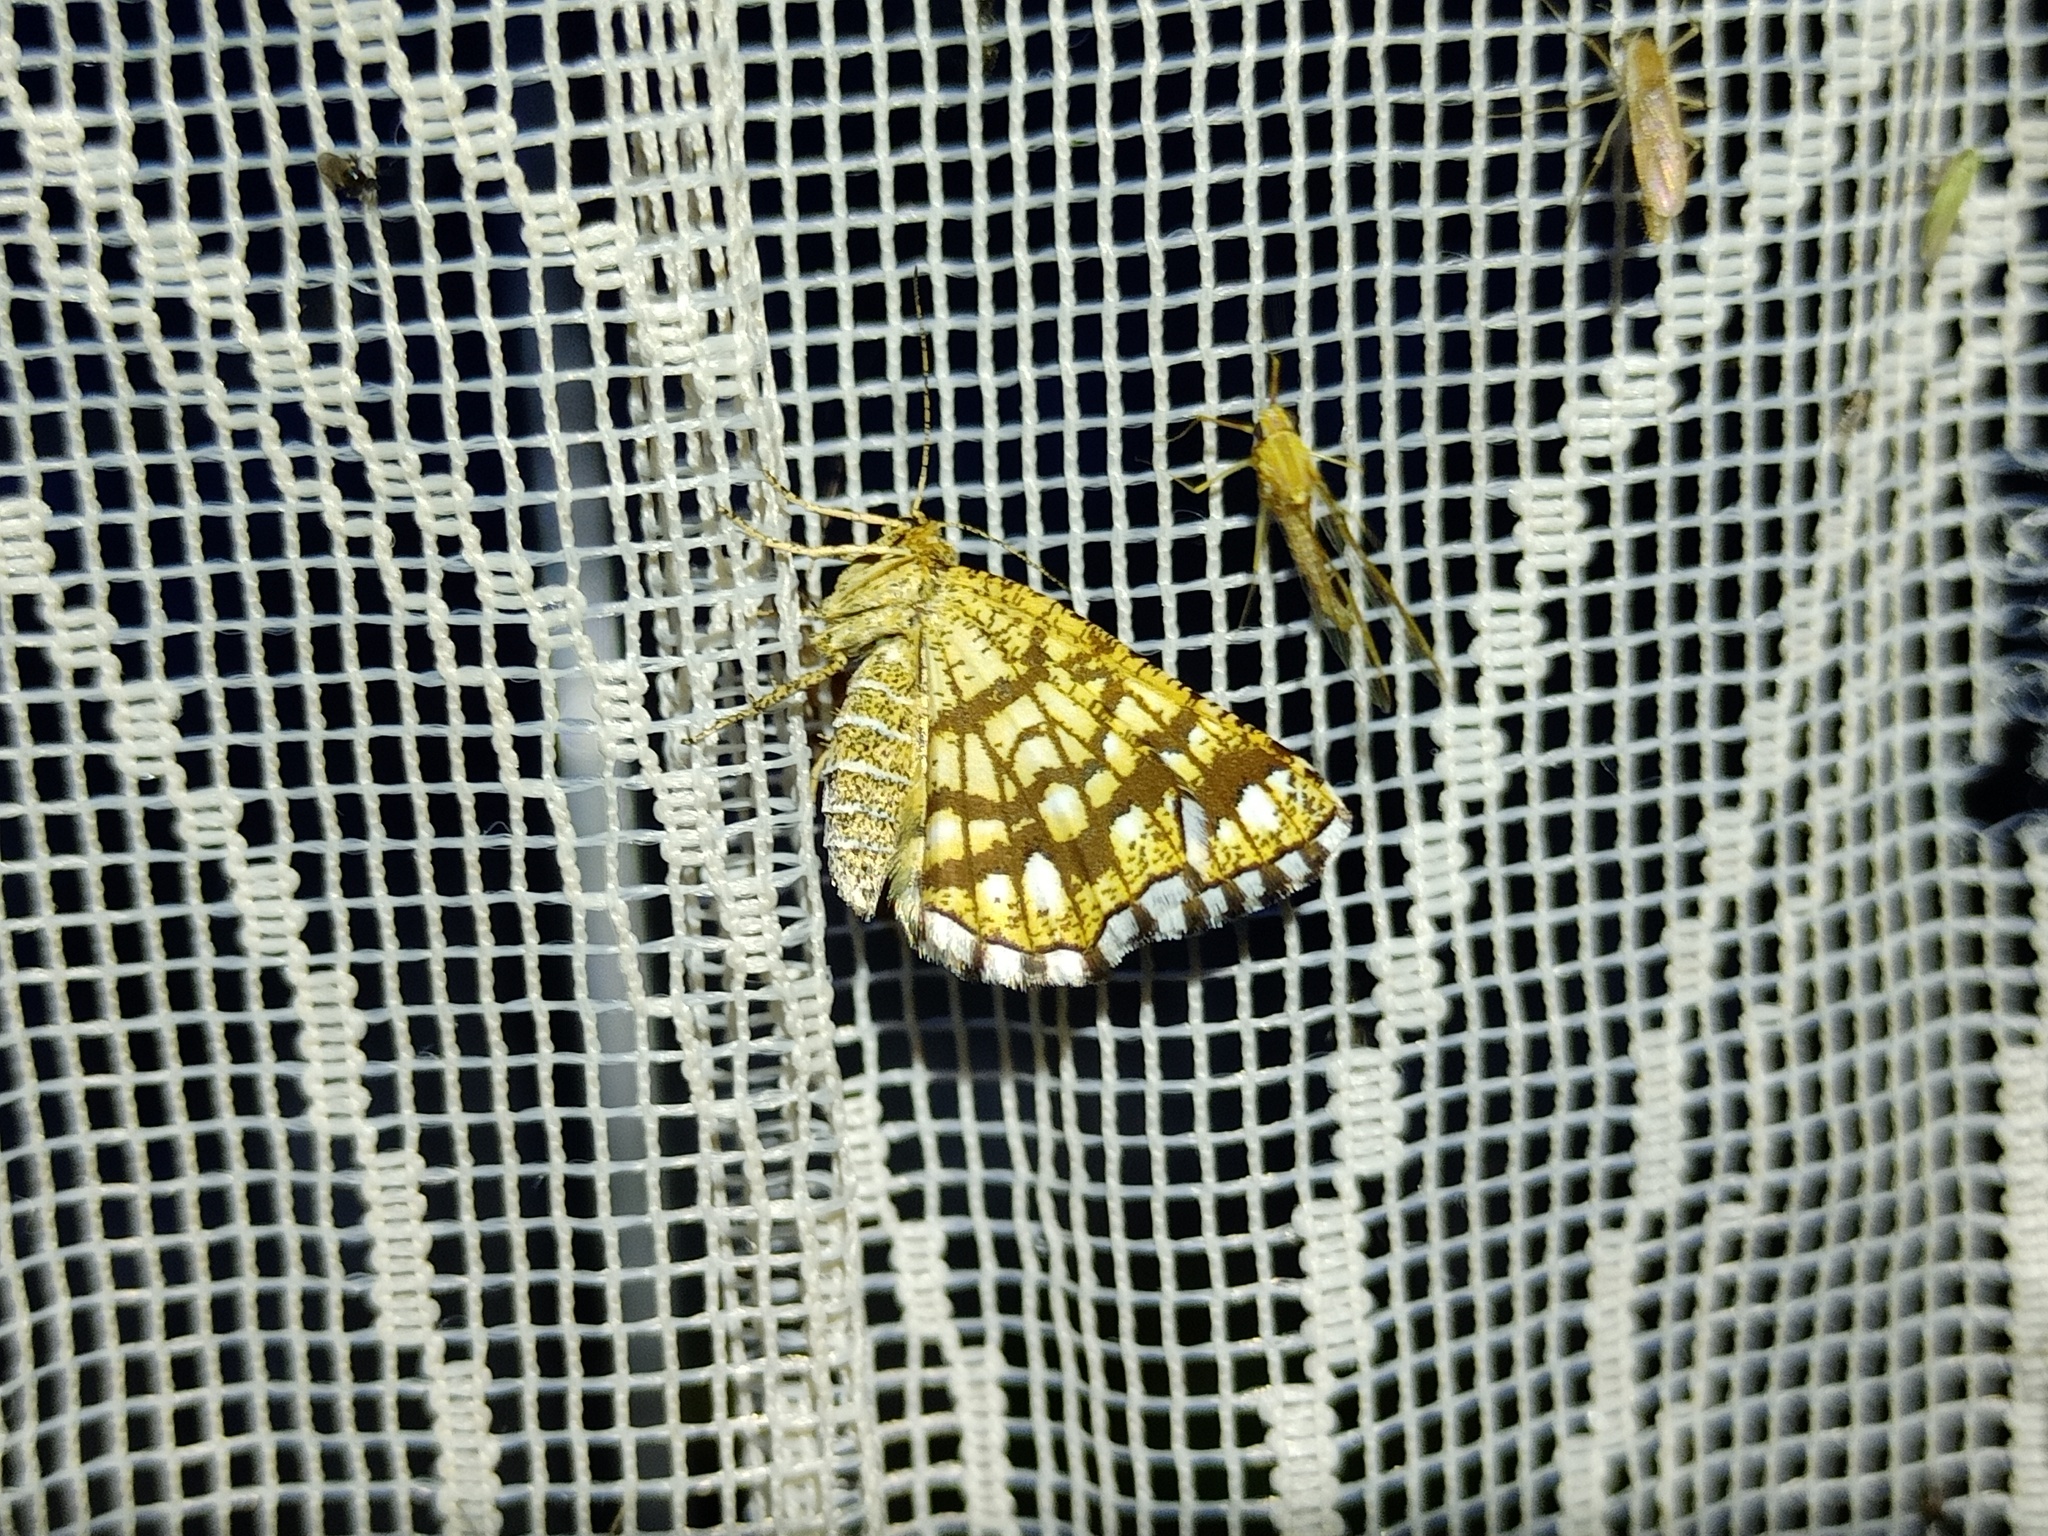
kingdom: Animalia
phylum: Arthropoda
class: Insecta
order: Lepidoptera
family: Geometridae
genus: Chiasmia
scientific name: Chiasmia clathrata
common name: Latticed heath
